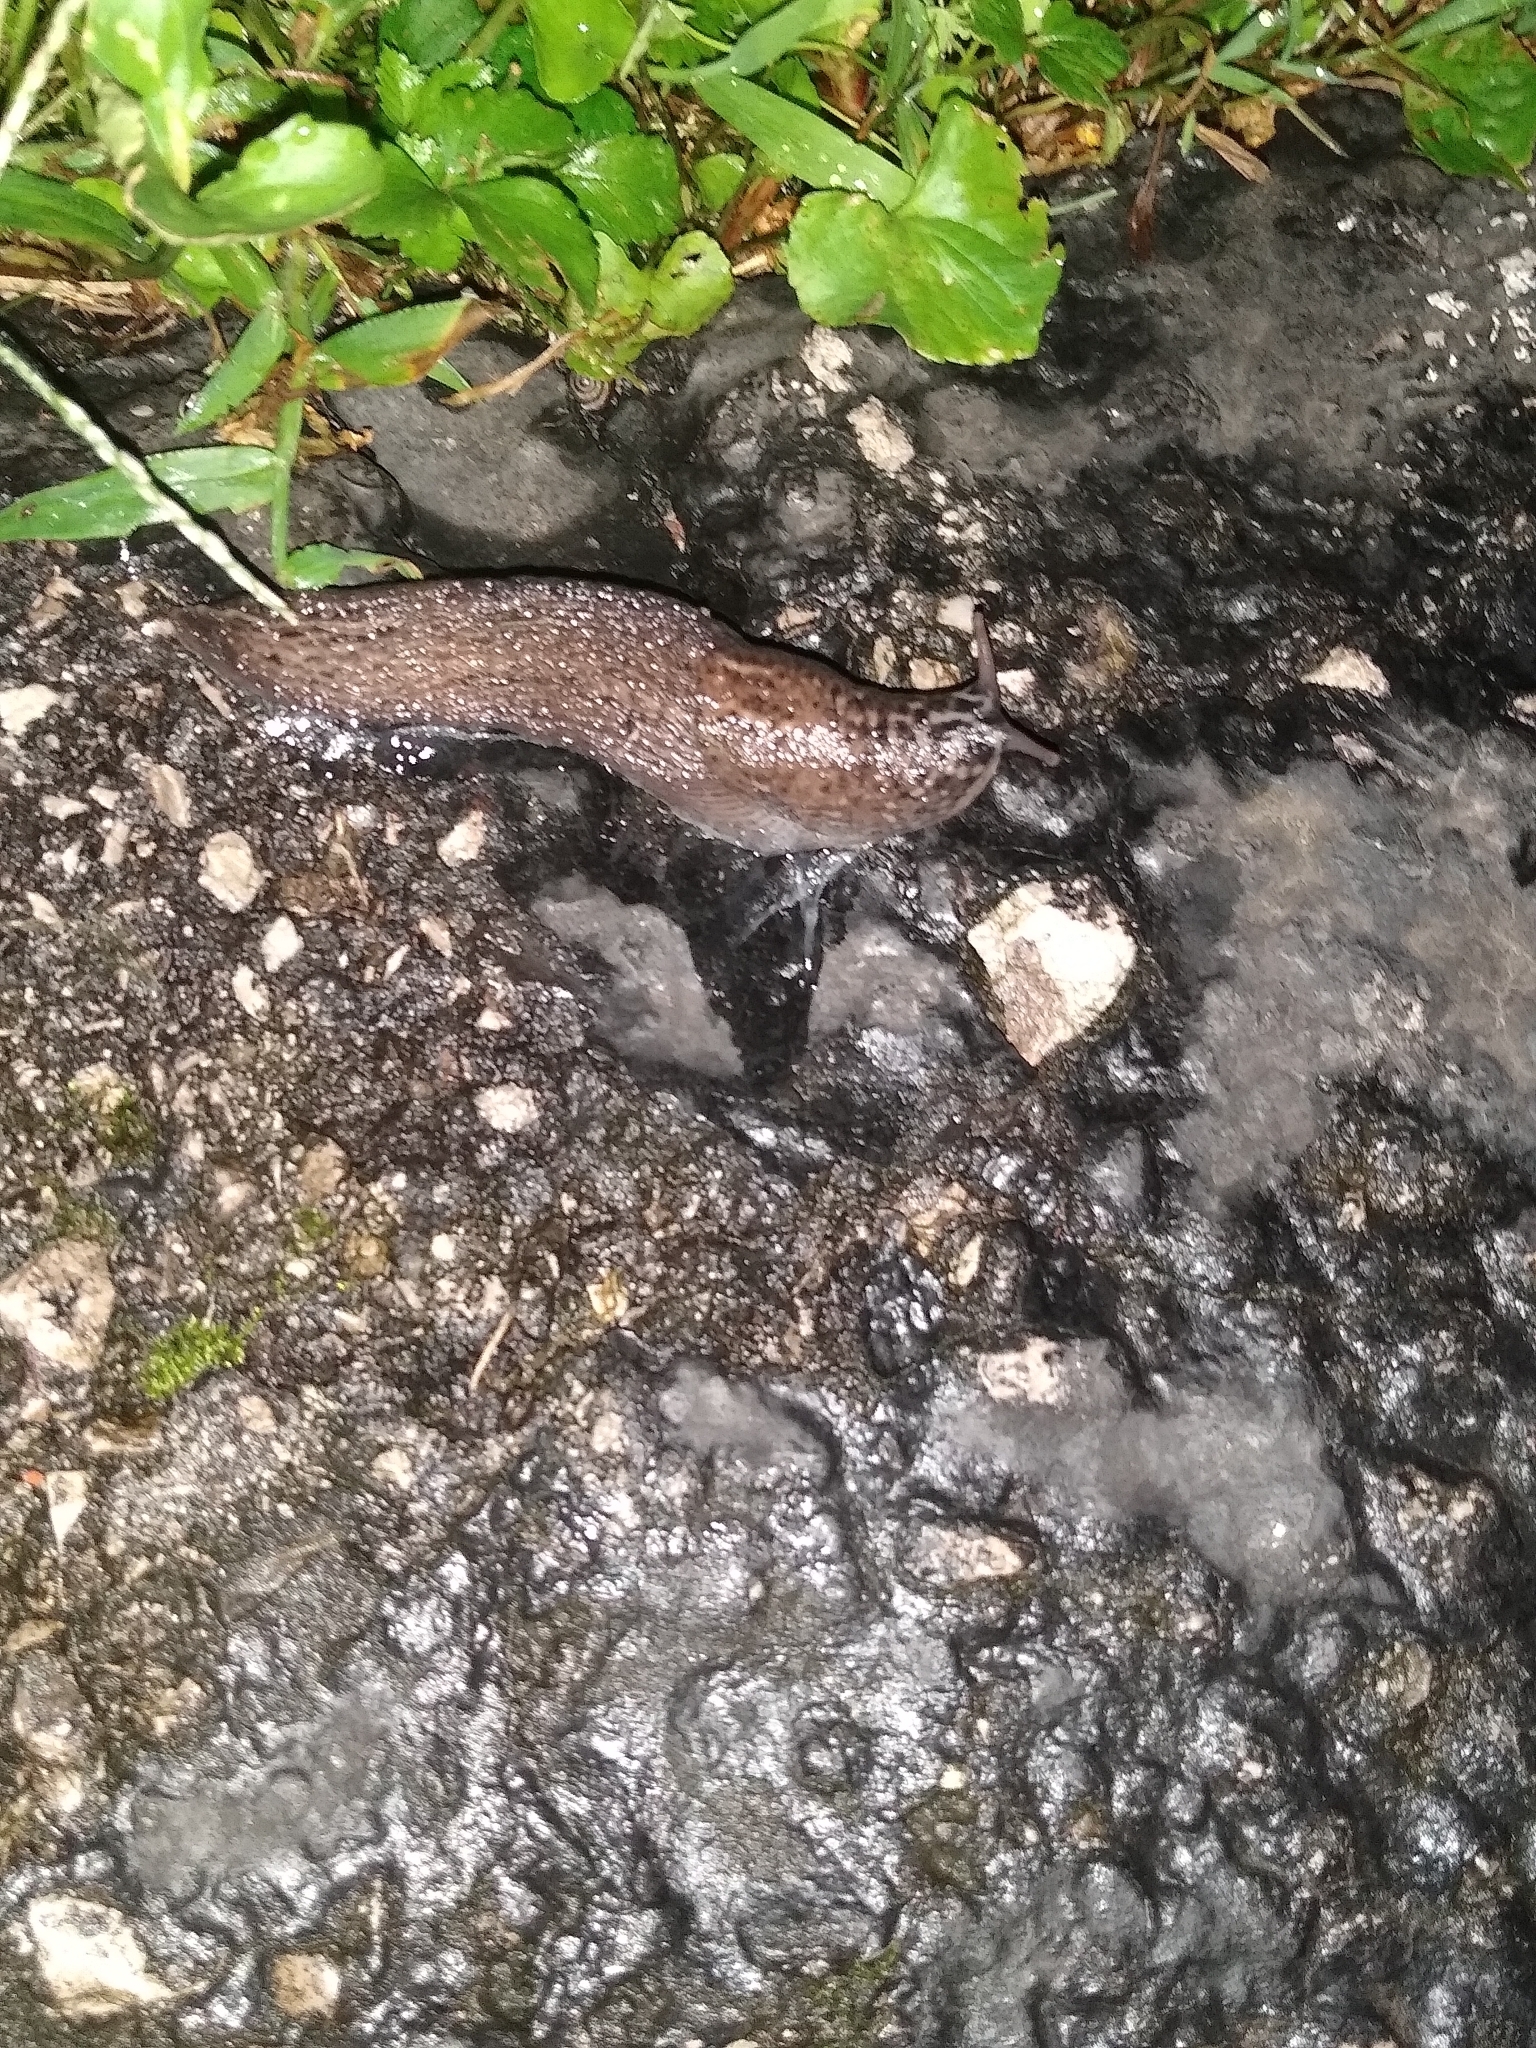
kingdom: Animalia
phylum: Mollusca
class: Gastropoda
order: Stylommatophora
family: Limacidae
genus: Limax
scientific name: Limax maximus
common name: Great grey slug
